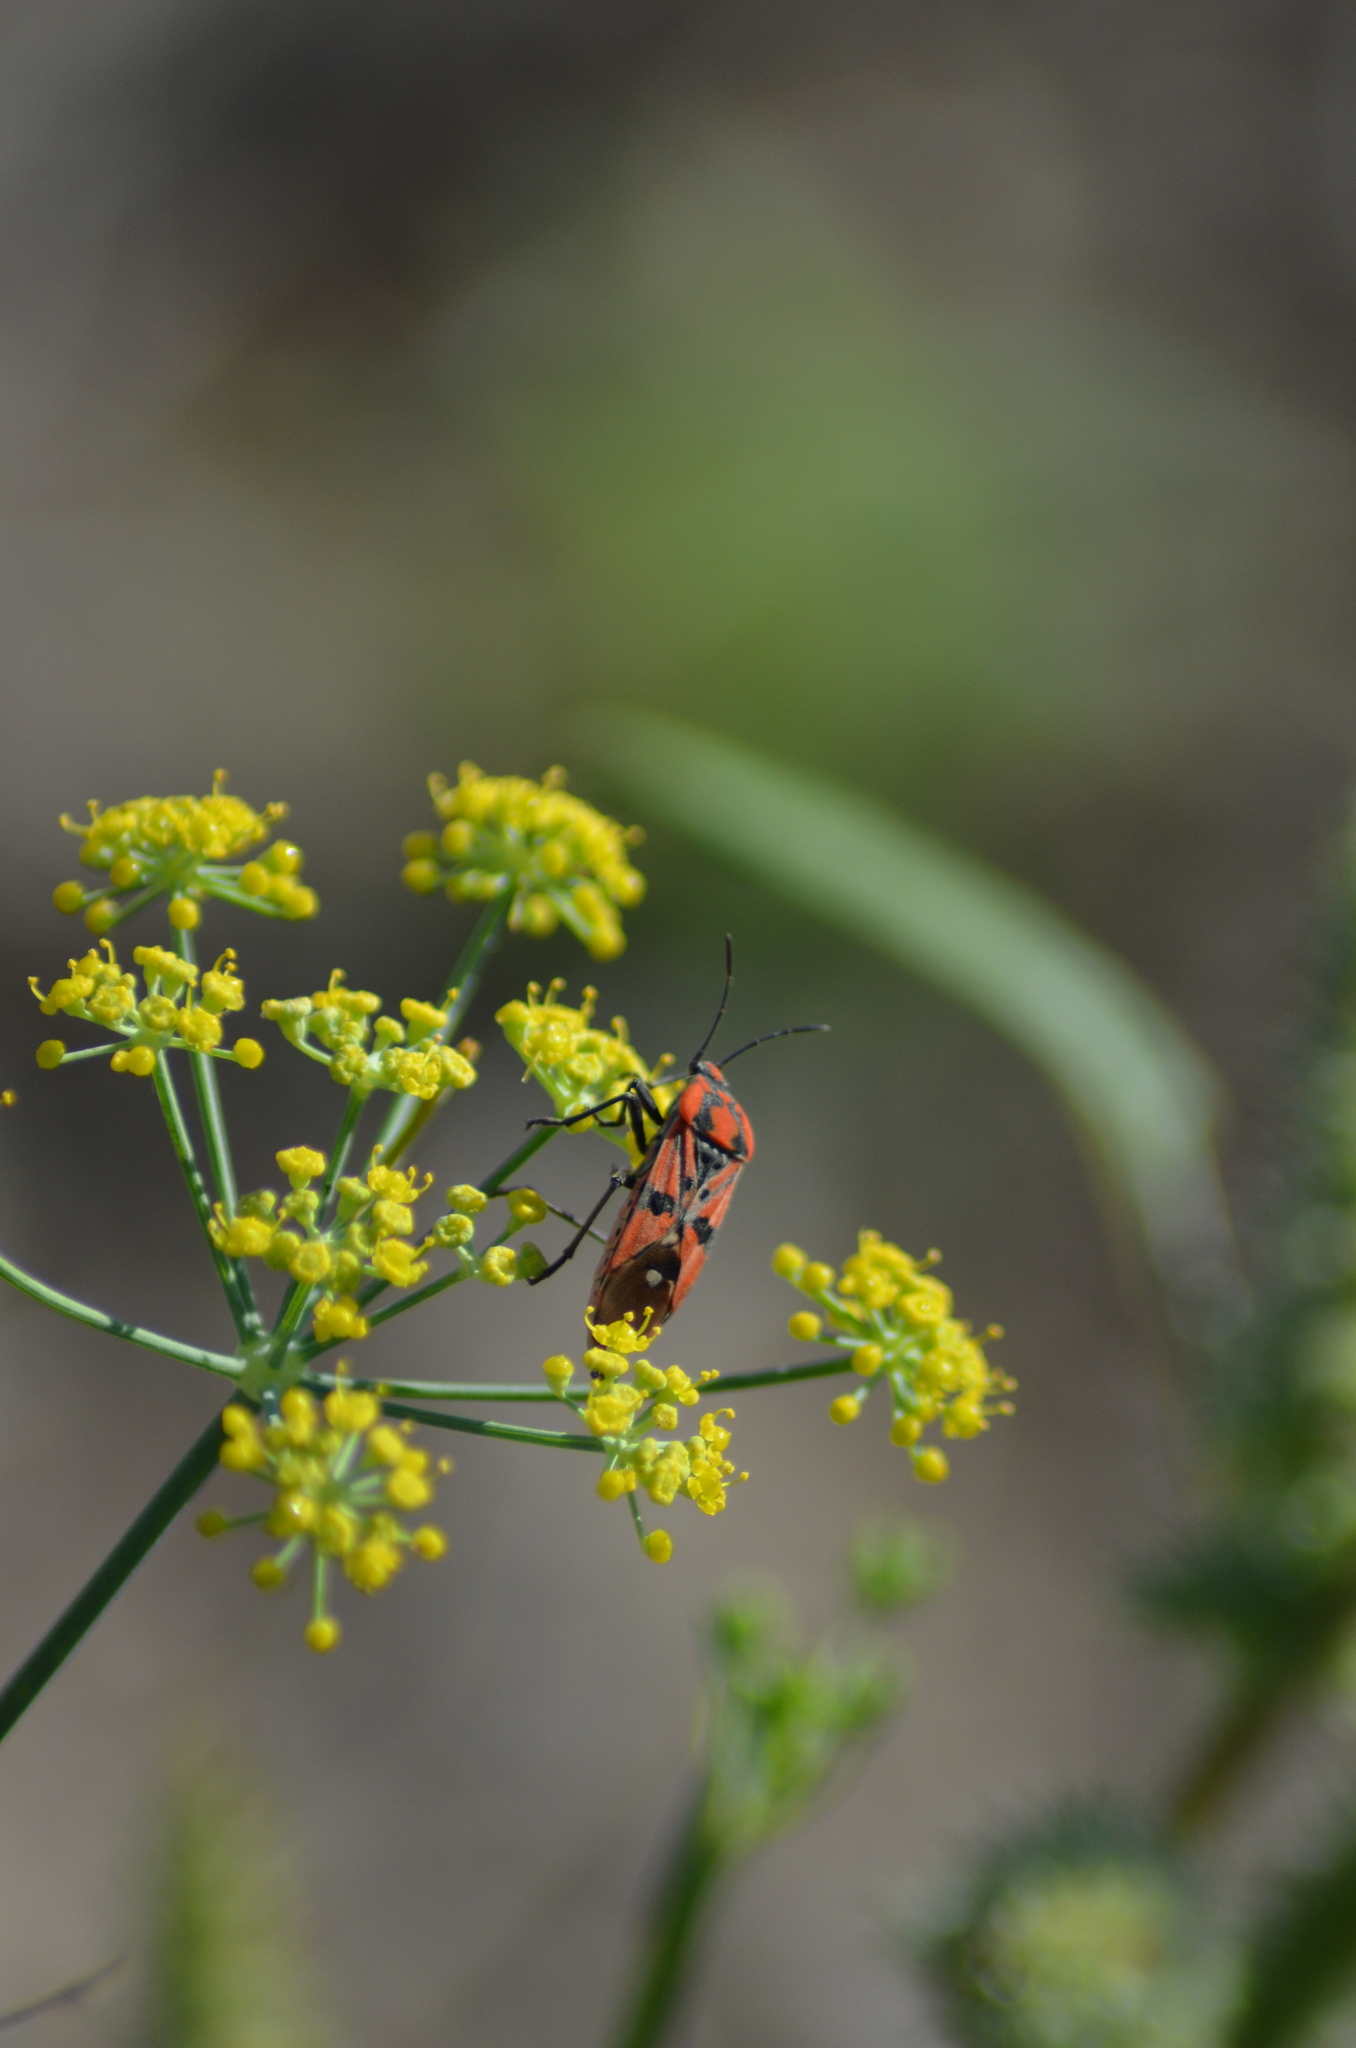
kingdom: Animalia
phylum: Arthropoda
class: Insecta
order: Hemiptera
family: Lygaeidae
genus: Spilostethus
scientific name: Spilostethus pandurus
